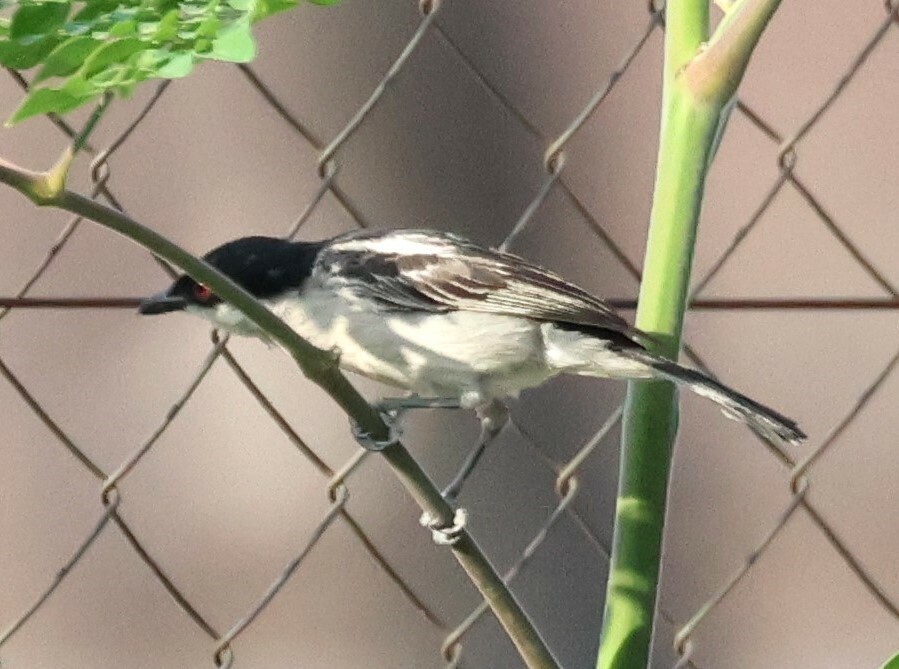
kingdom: Animalia
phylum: Chordata
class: Aves
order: Passeriformes
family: Malaconotidae
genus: Dryoscopus
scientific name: Dryoscopus cubla
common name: Black-backed puffback
